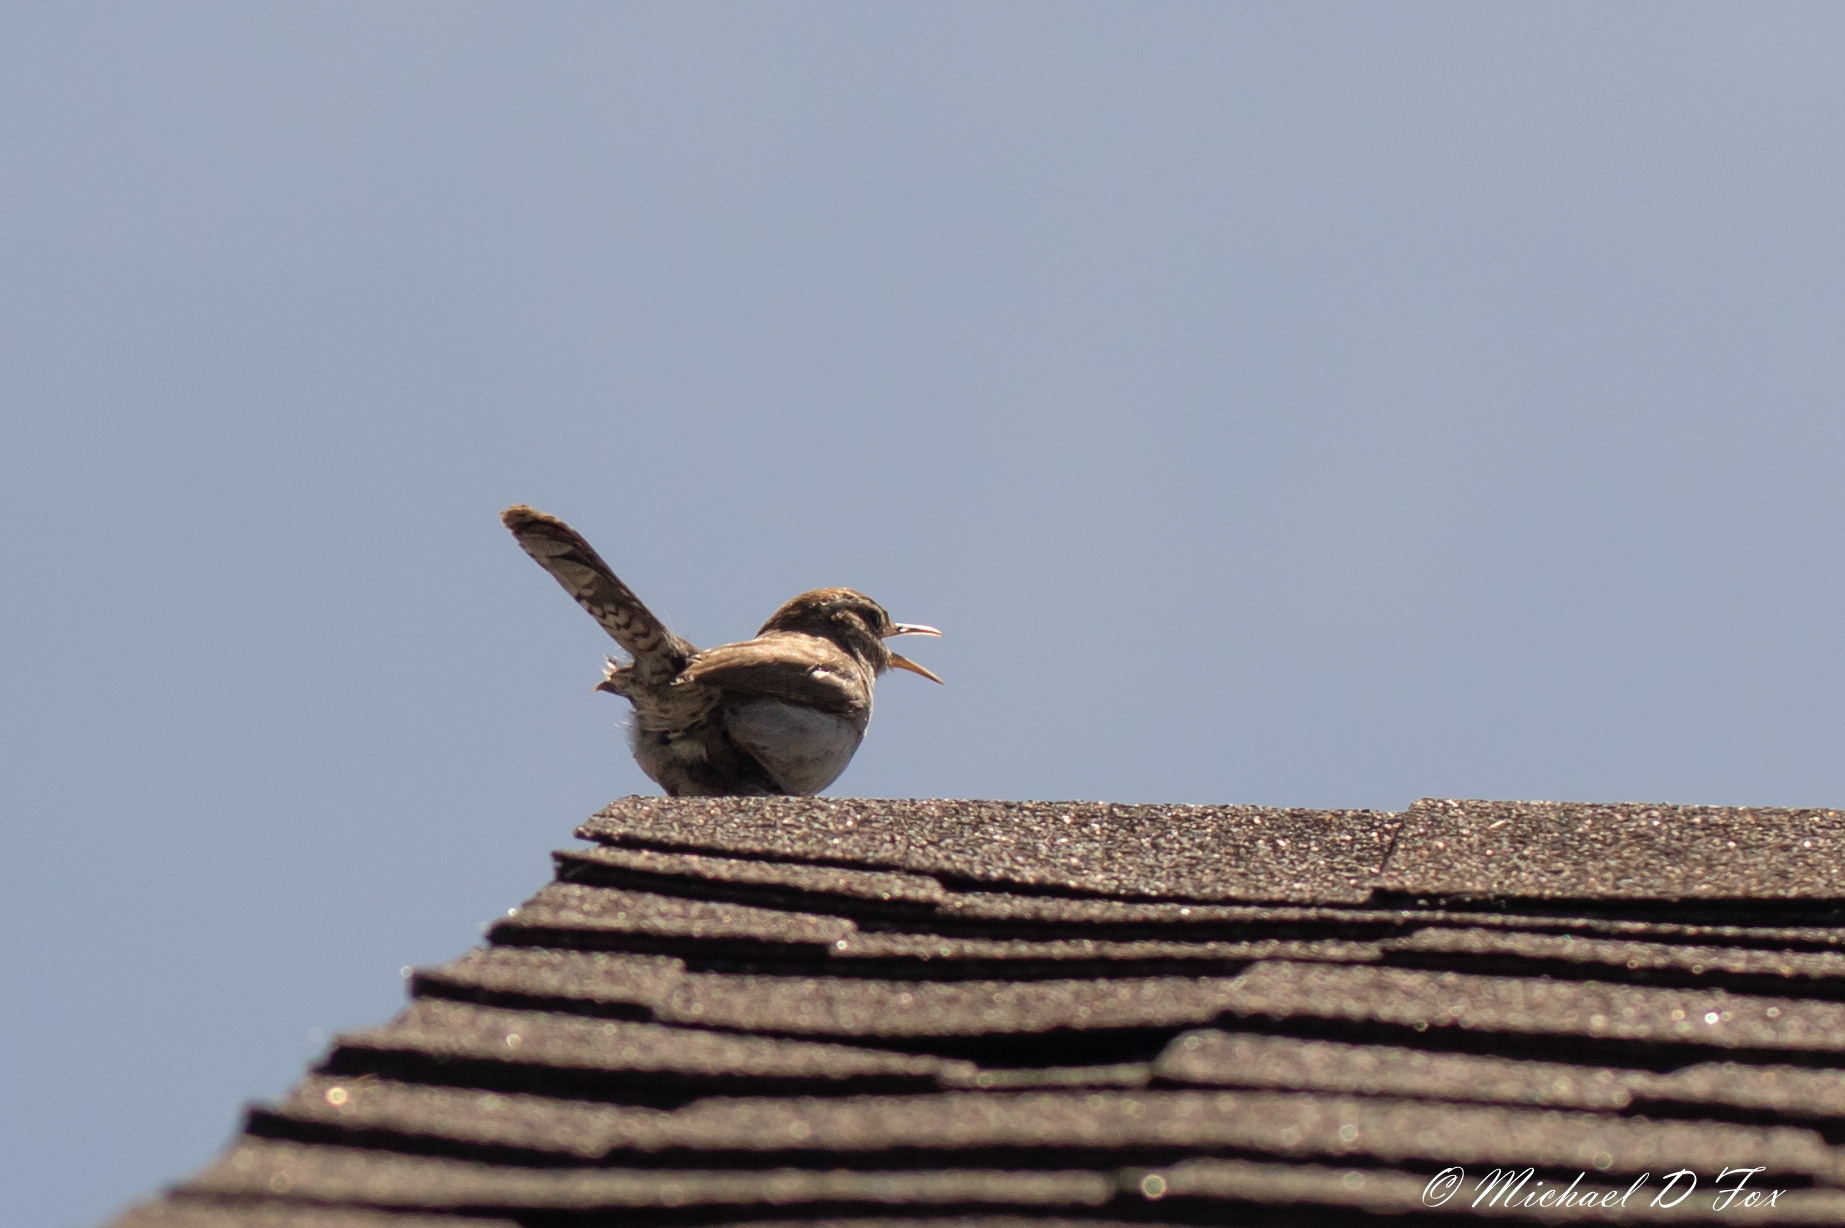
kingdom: Animalia
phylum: Chordata
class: Aves
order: Passeriformes
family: Troglodytidae
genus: Troglodytes
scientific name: Troglodytes aedon
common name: House wren
